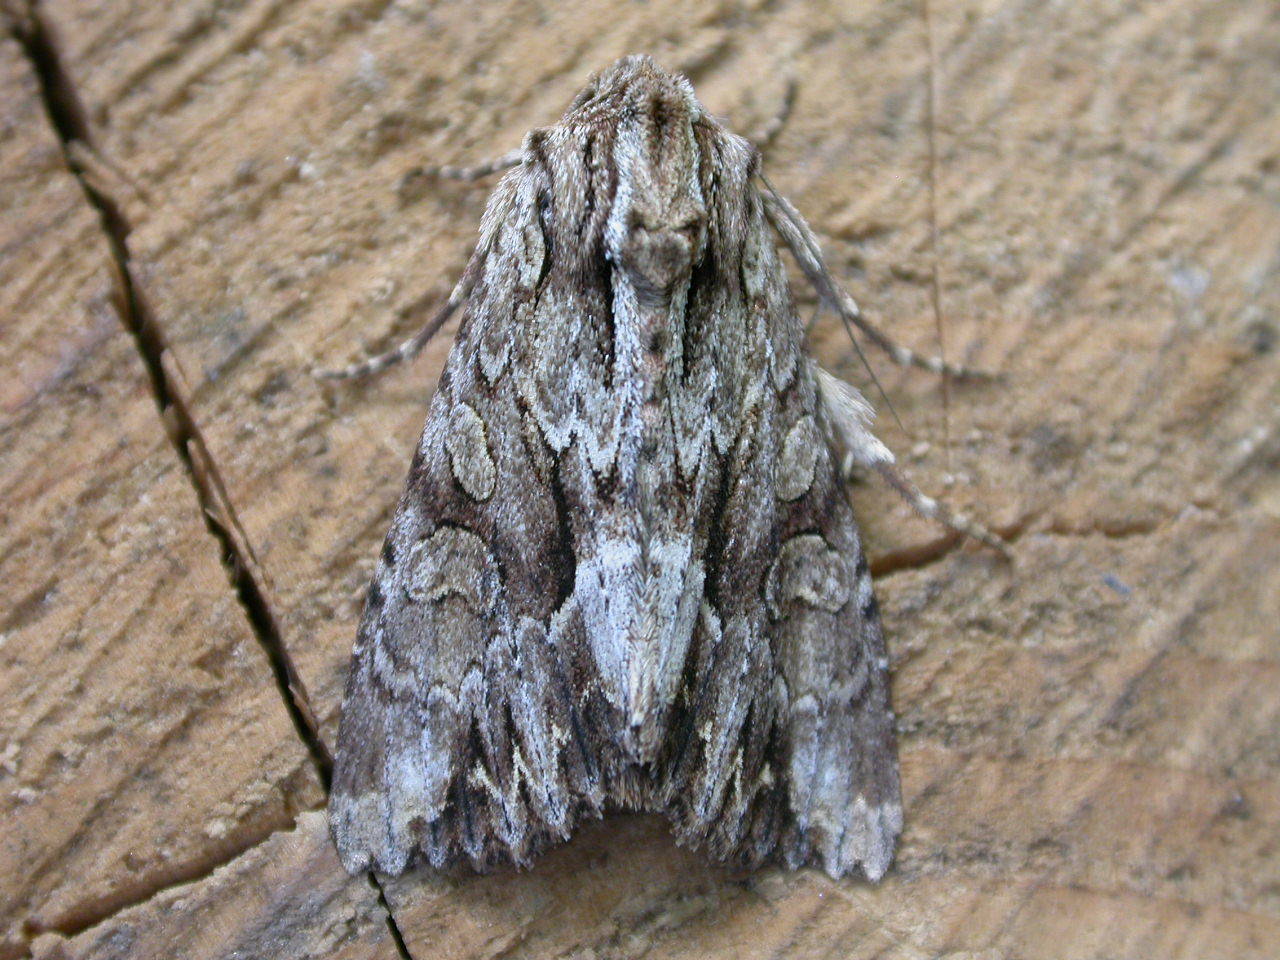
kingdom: Animalia
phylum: Arthropoda
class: Insecta
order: Lepidoptera
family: Noctuidae
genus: Apamea
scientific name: Apamea monoglypha
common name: Dark arches
